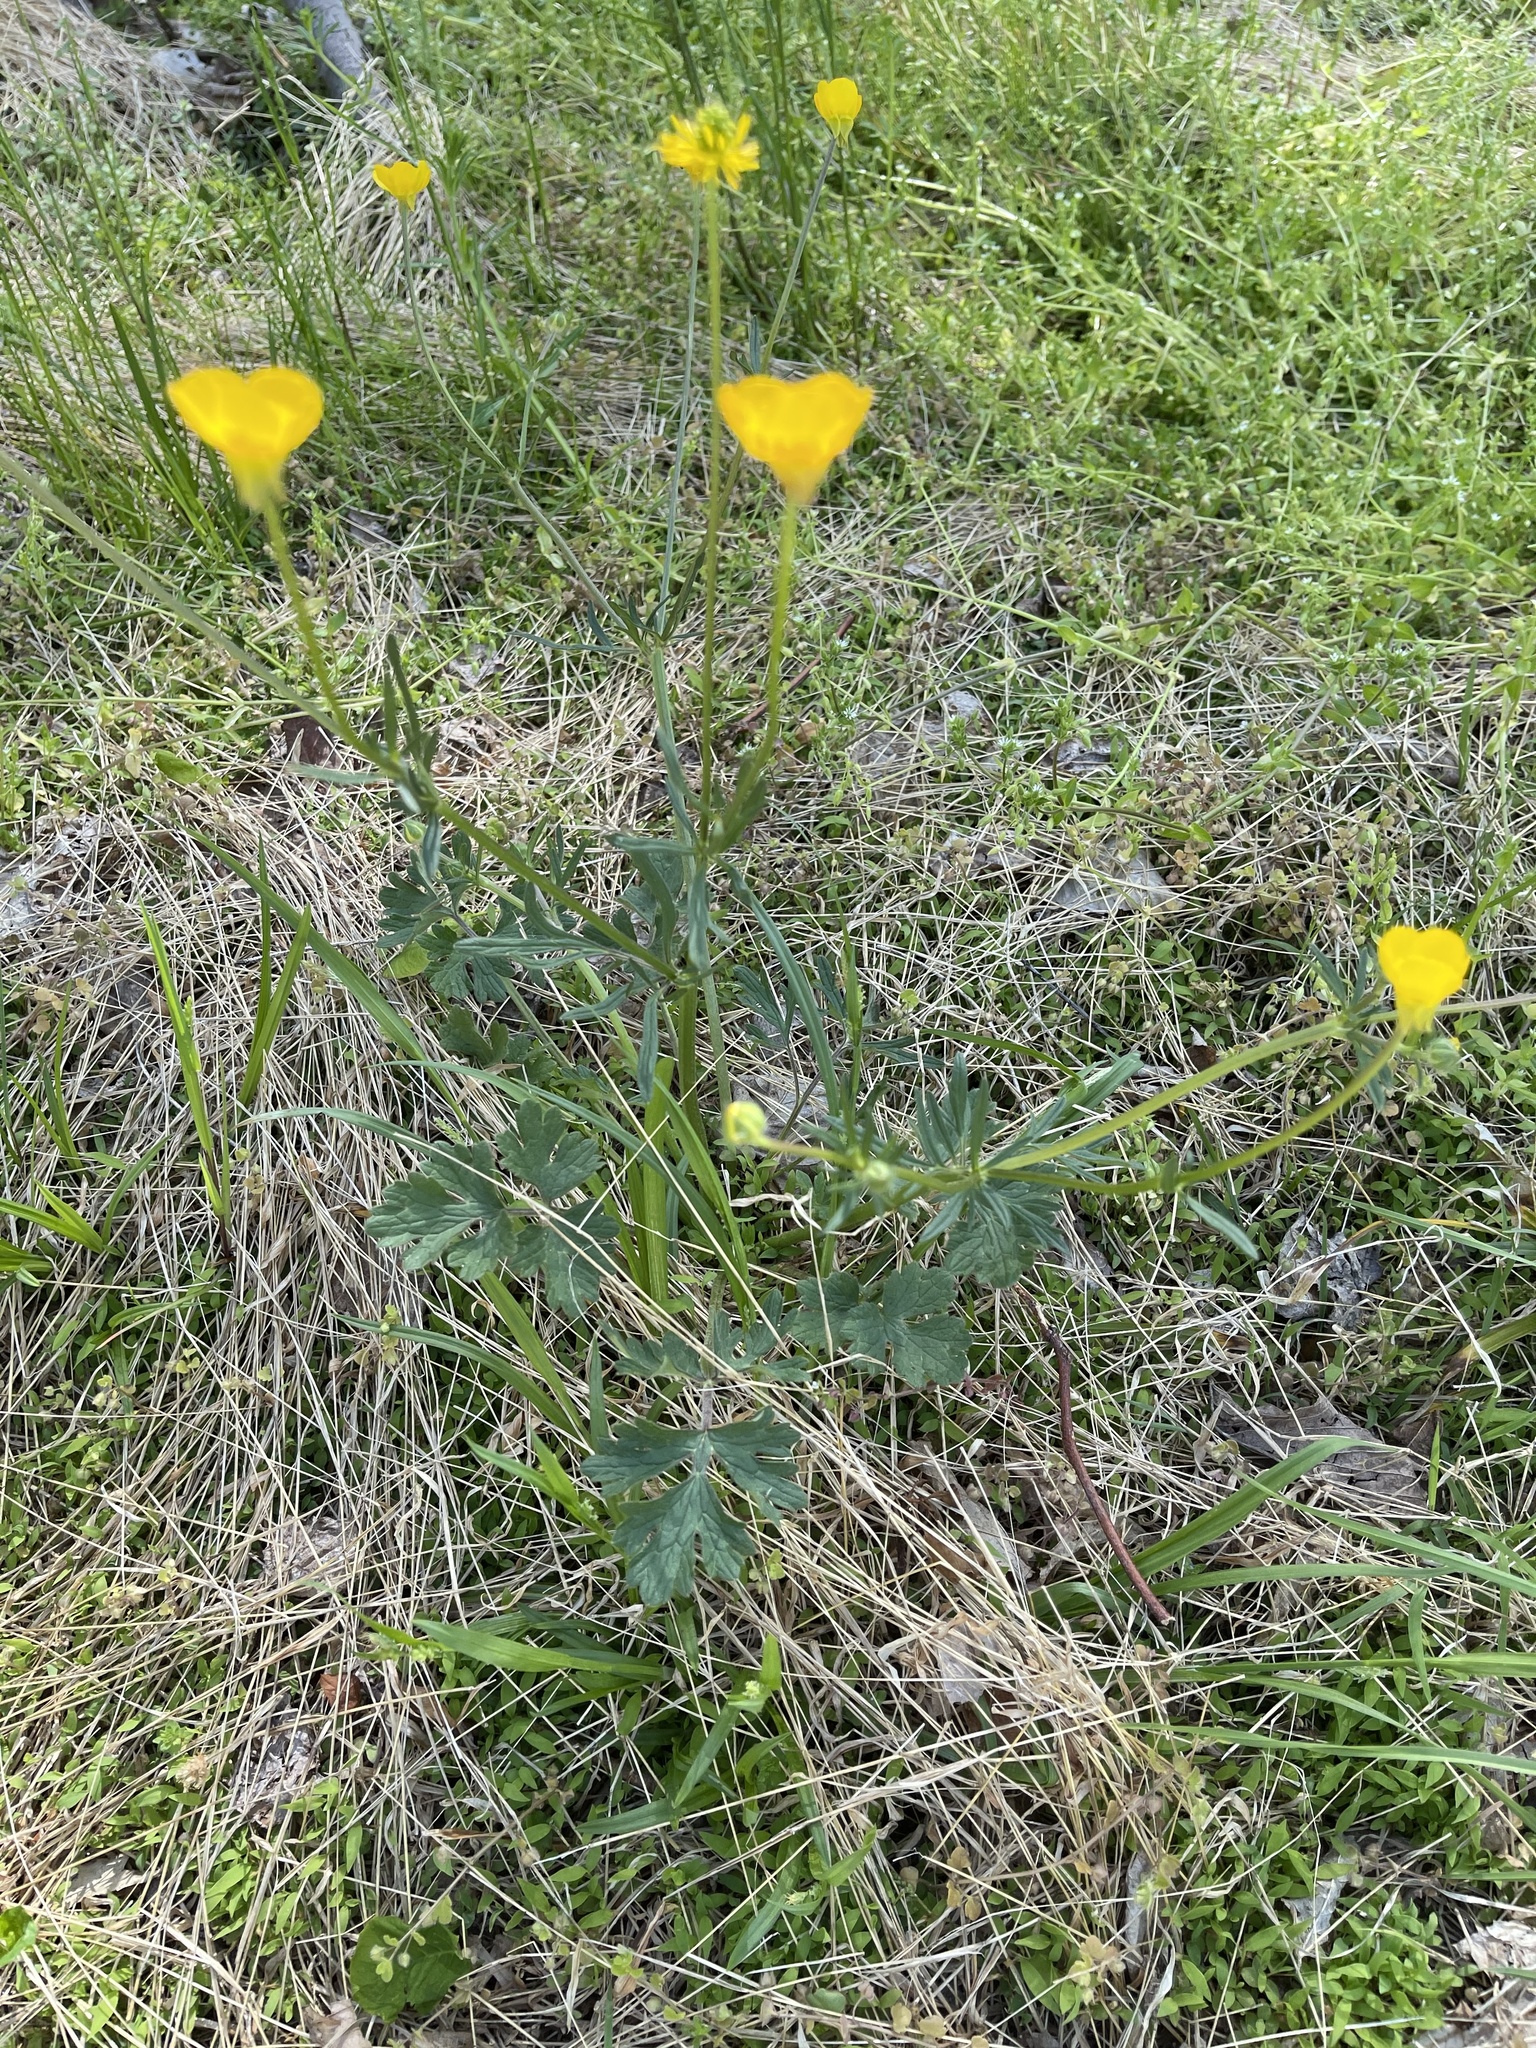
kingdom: Plantae
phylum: Tracheophyta
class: Magnoliopsida
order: Ranunculales
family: Ranunculaceae
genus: Ranunculus
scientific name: Ranunculus bulbosus
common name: Bulbous buttercup
